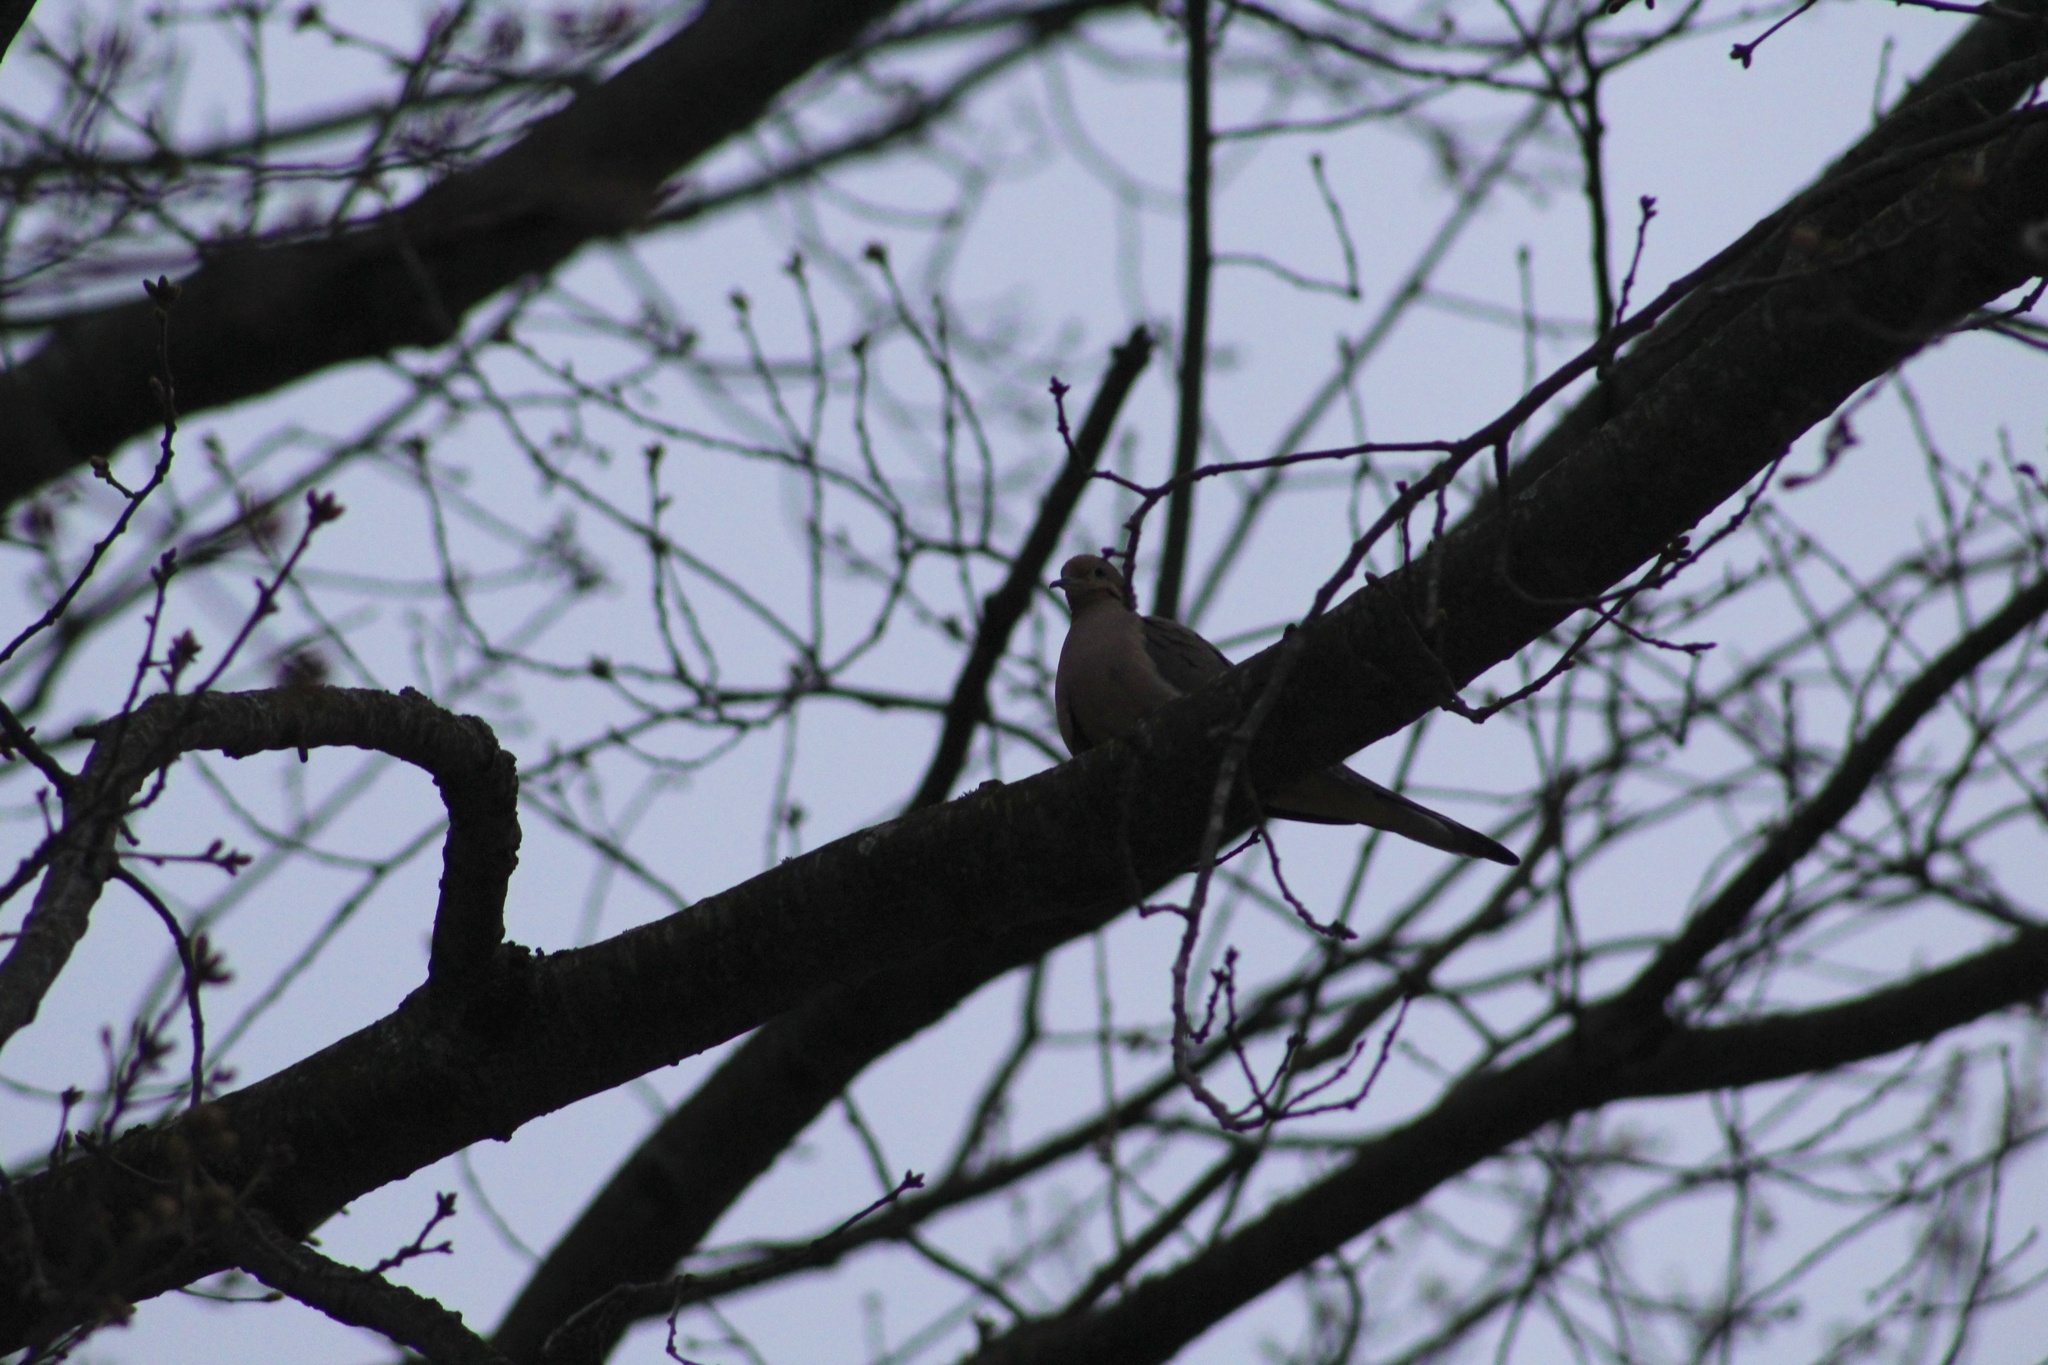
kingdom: Animalia
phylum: Chordata
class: Aves
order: Columbiformes
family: Columbidae
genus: Zenaida
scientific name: Zenaida macroura
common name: Mourning dove
